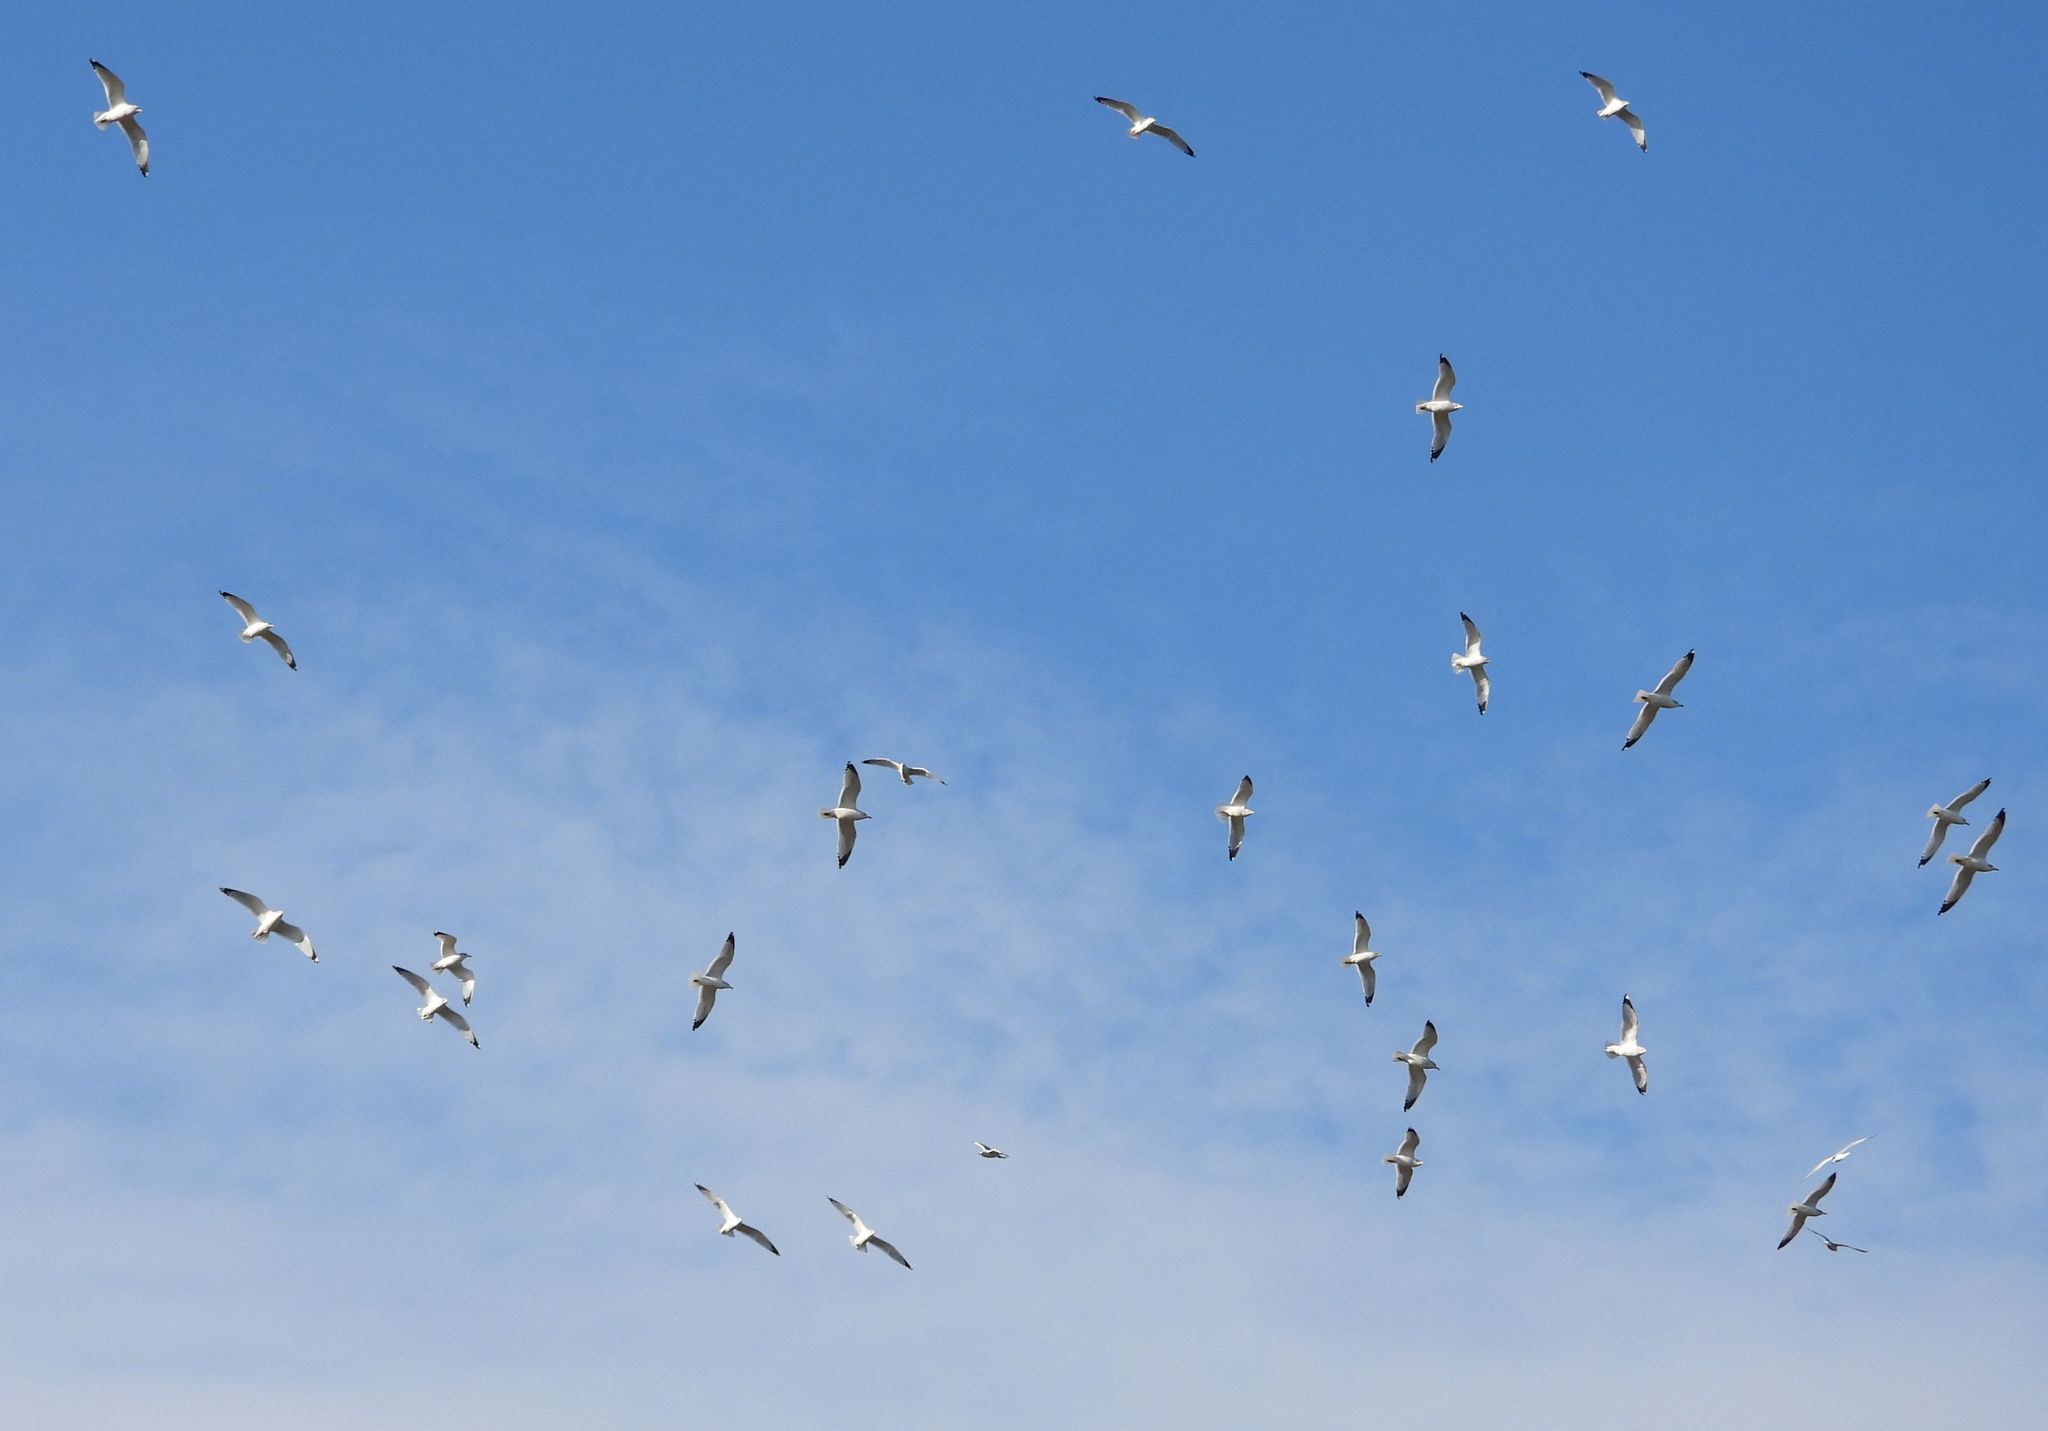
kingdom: Animalia
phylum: Chordata
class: Aves
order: Charadriiformes
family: Laridae
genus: Larus
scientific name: Larus delawarensis
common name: Ring-billed gull
